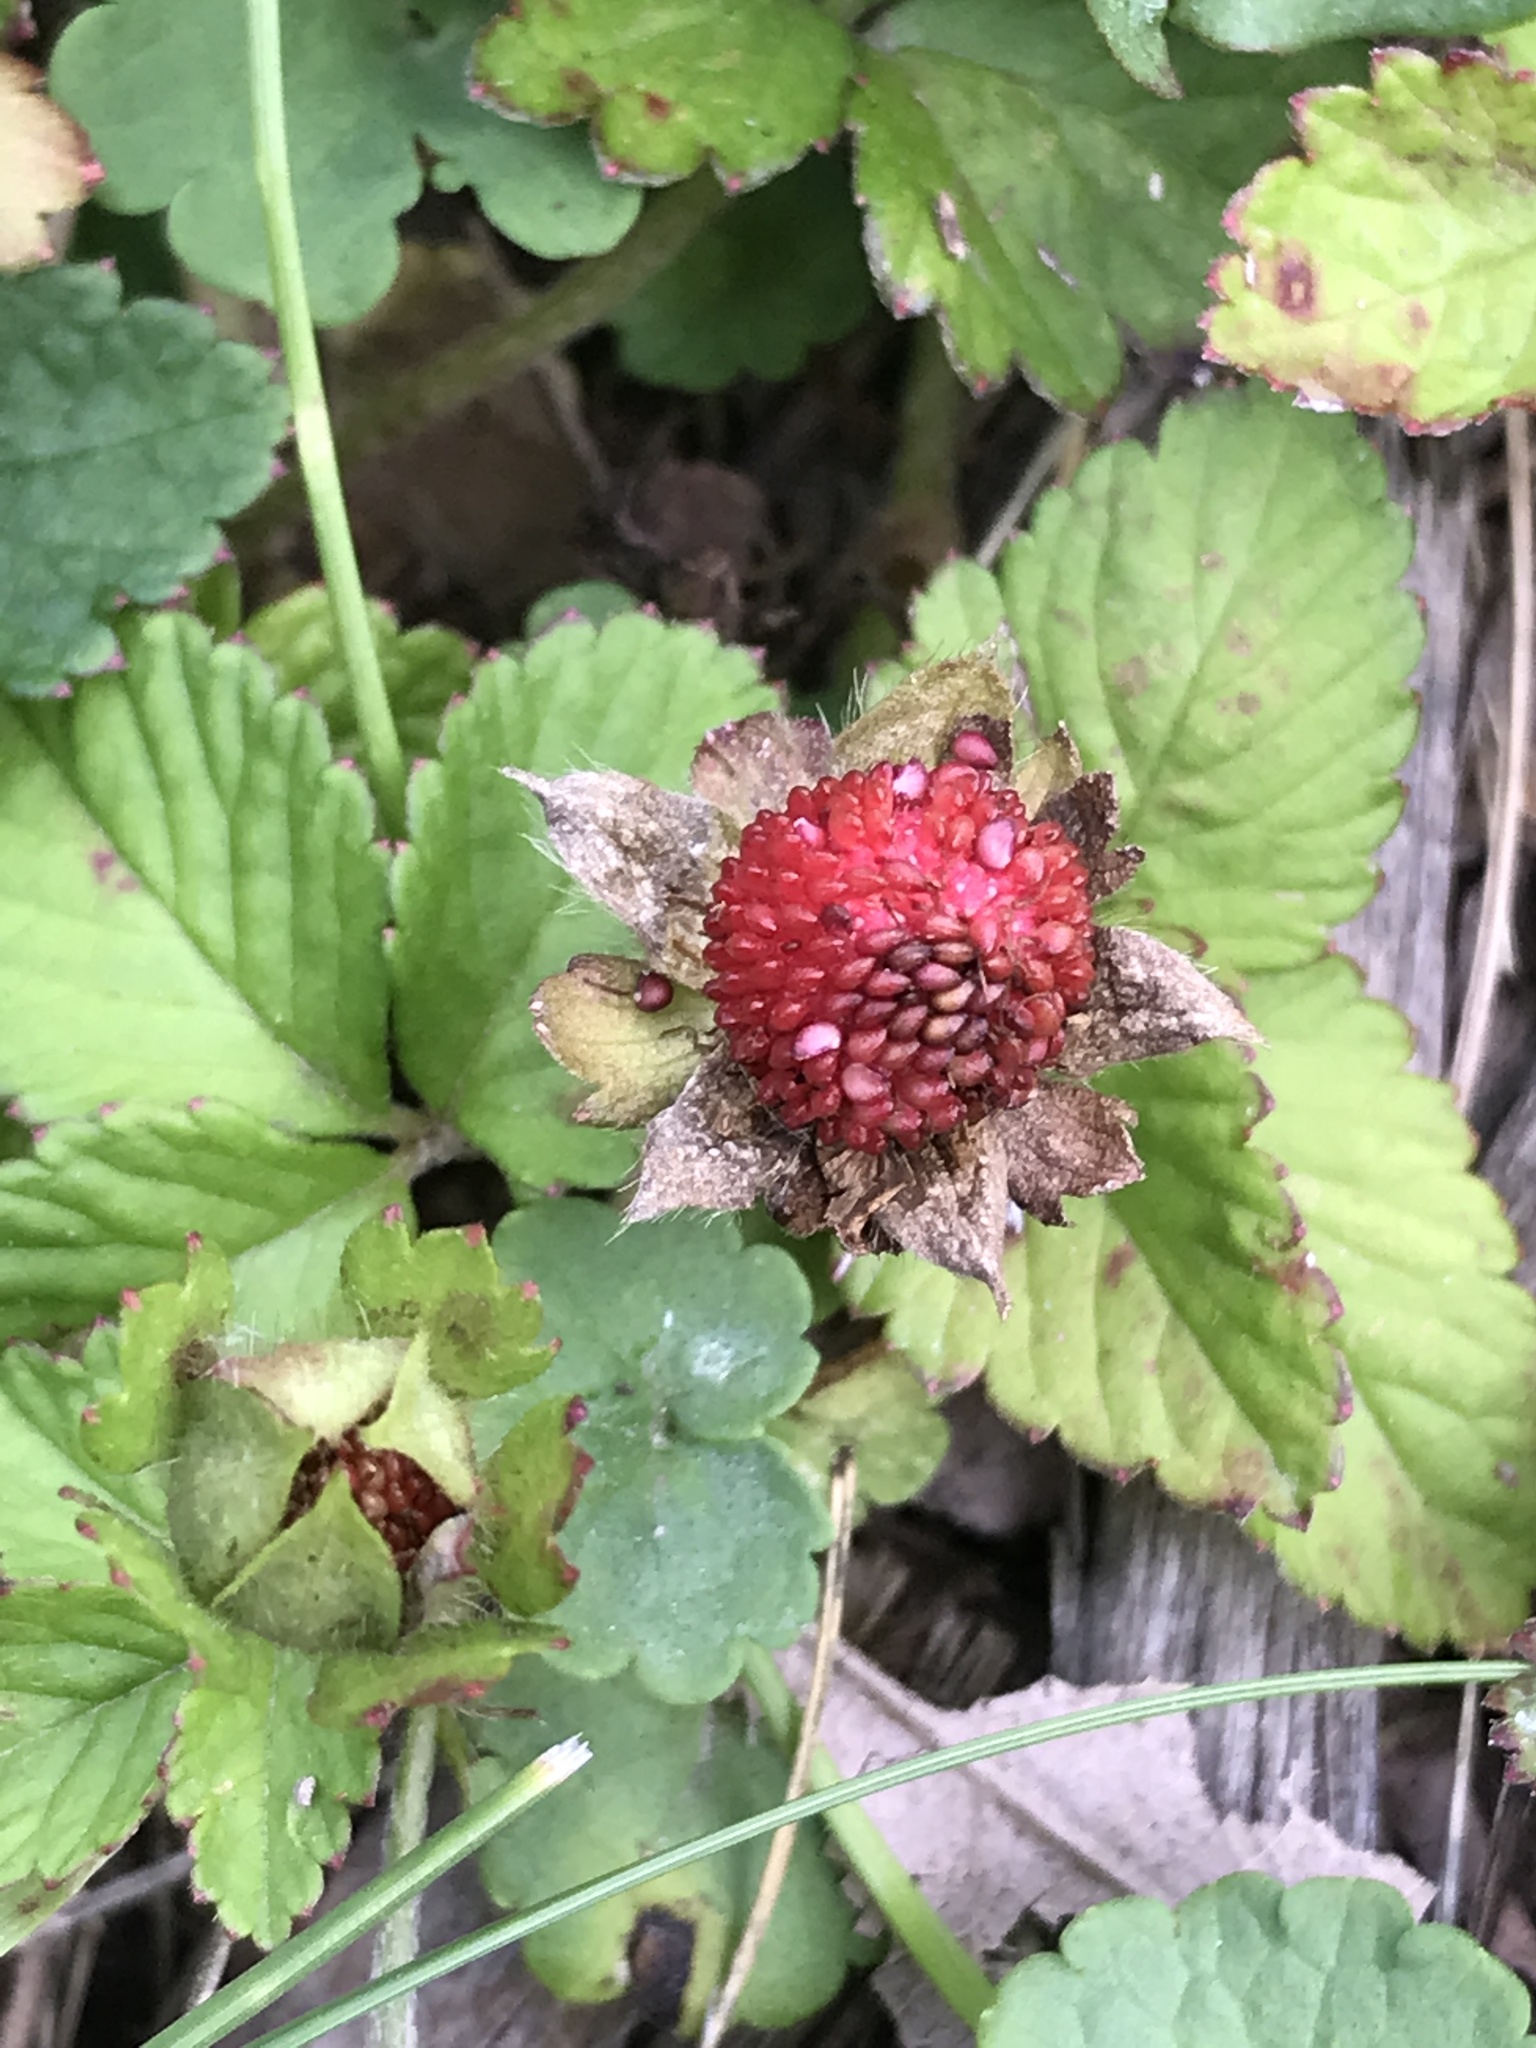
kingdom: Plantae
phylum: Tracheophyta
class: Magnoliopsida
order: Rosales
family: Rosaceae
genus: Potentilla
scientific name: Potentilla indica
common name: Yellow-flowered strawberry
